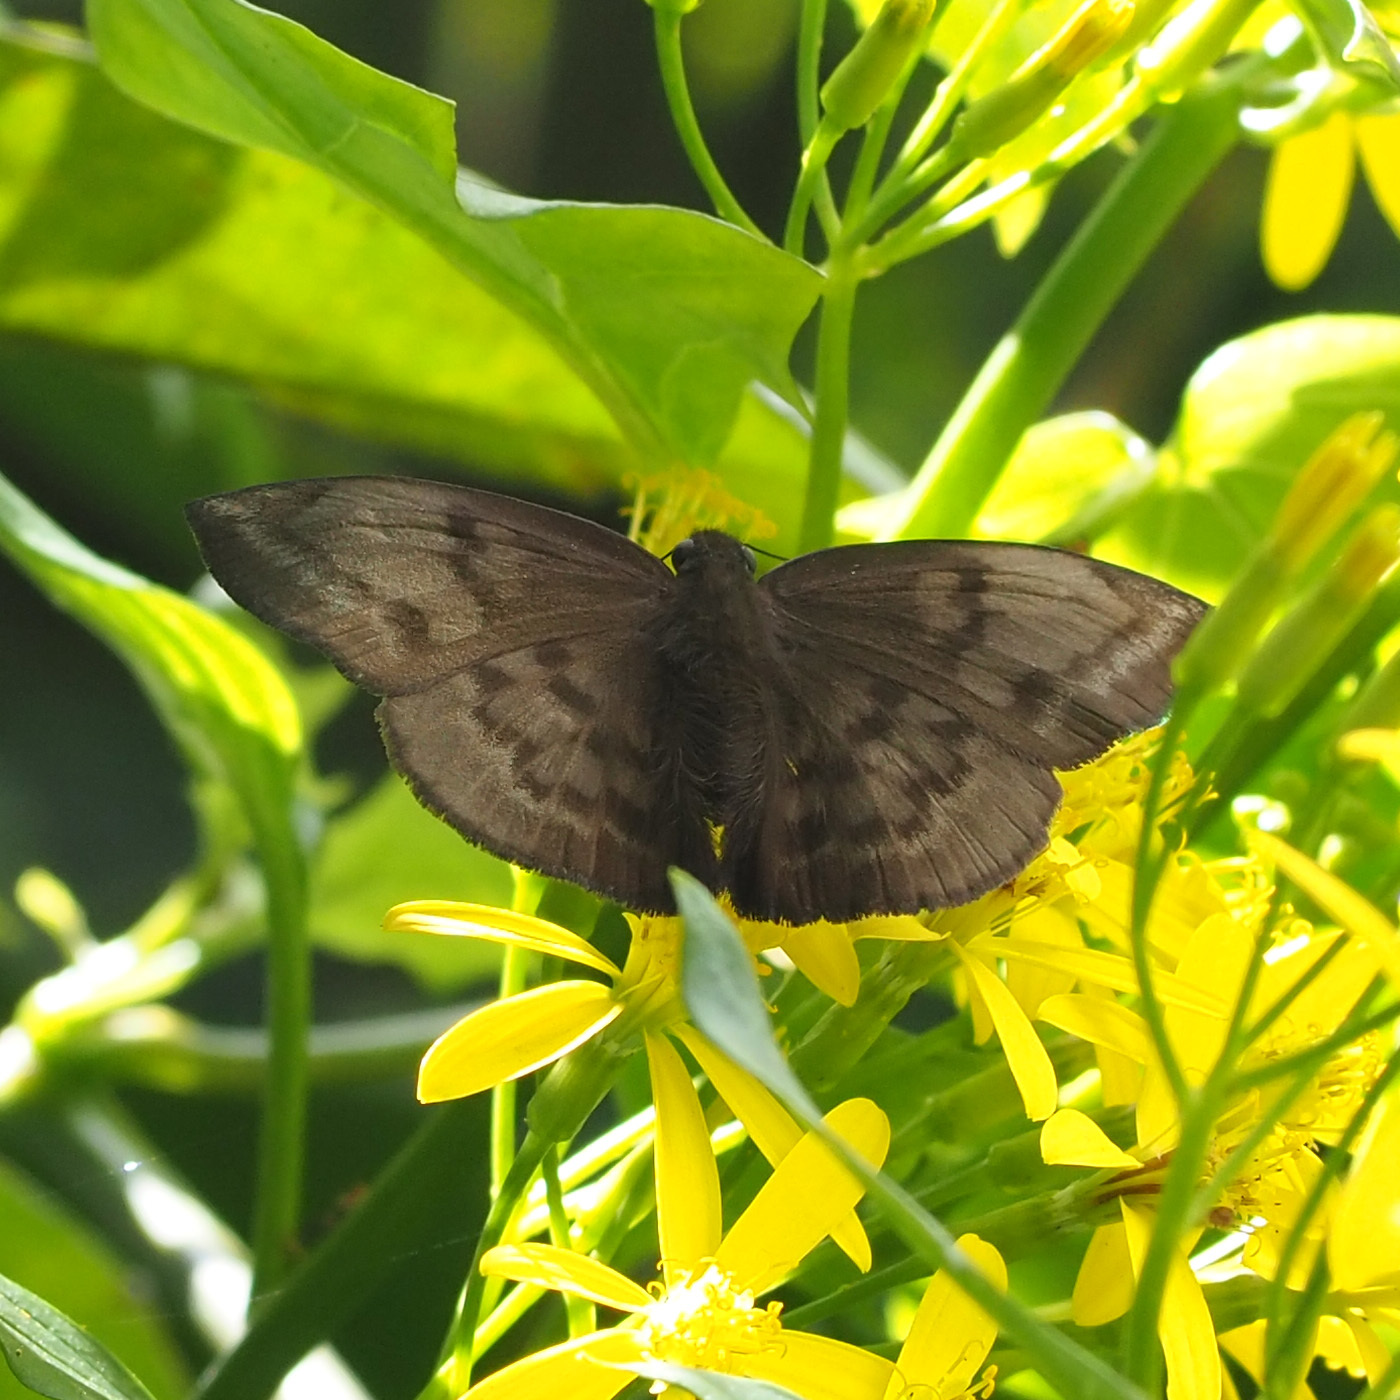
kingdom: Animalia
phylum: Arthropoda
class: Insecta
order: Lepidoptera
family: Hesperiidae
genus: Achlyodes
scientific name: Achlyodes pallida
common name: Pale sicklewing
